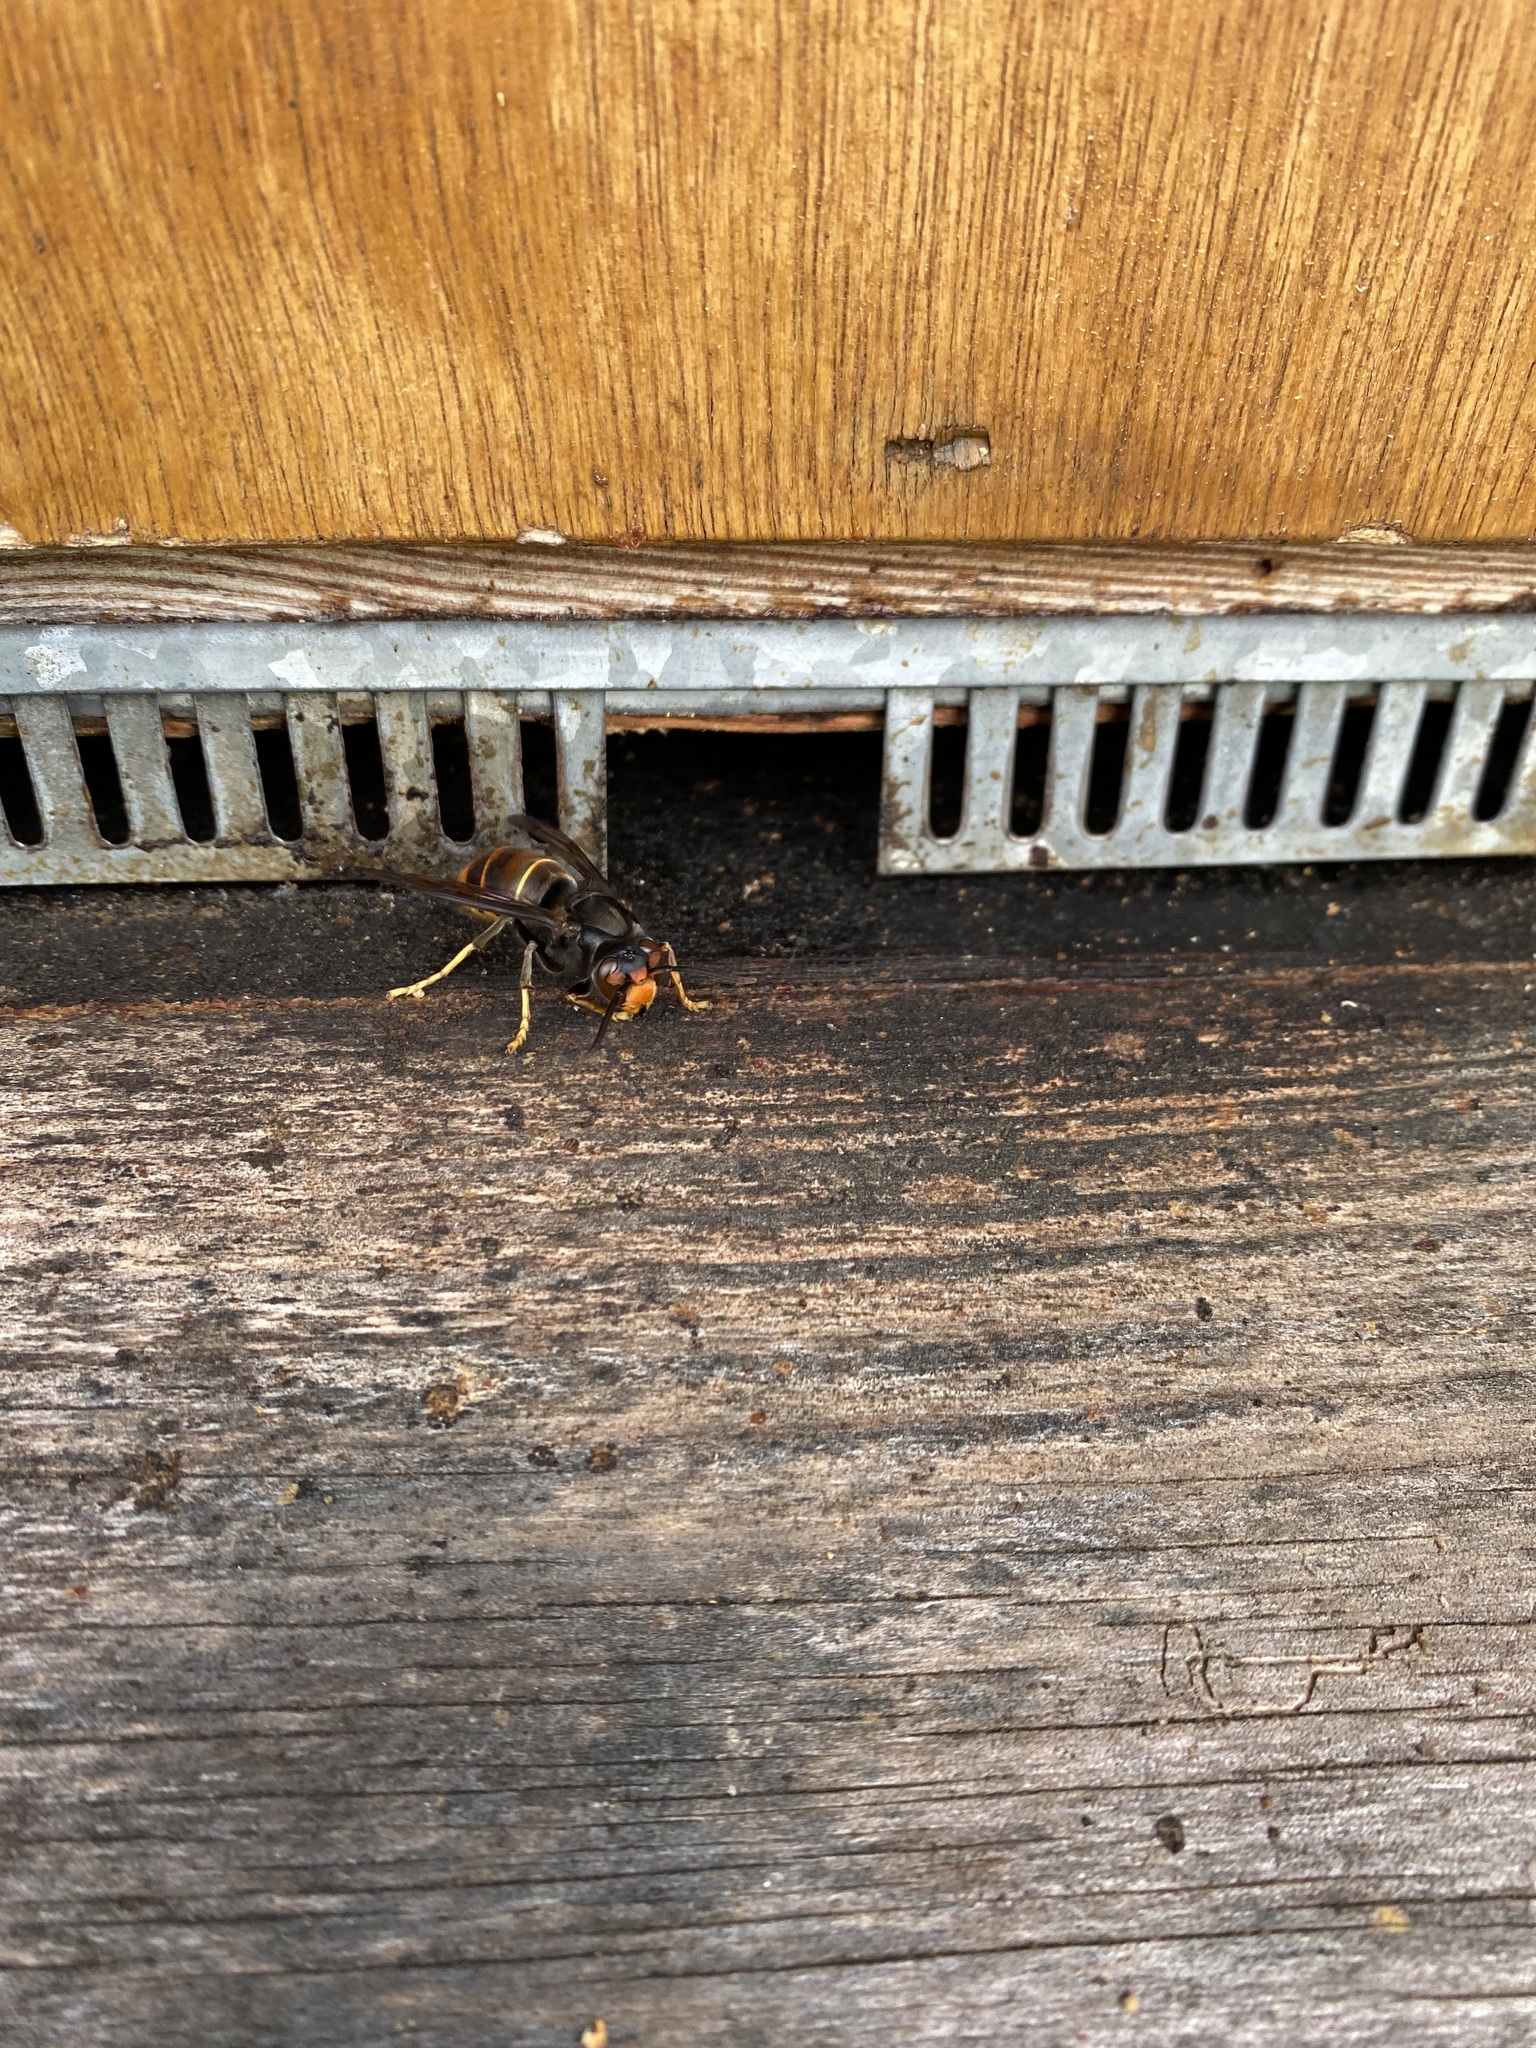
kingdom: Animalia
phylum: Arthropoda
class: Insecta
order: Hymenoptera
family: Vespidae
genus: Vespa
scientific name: Vespa velutina
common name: Asian hornet
